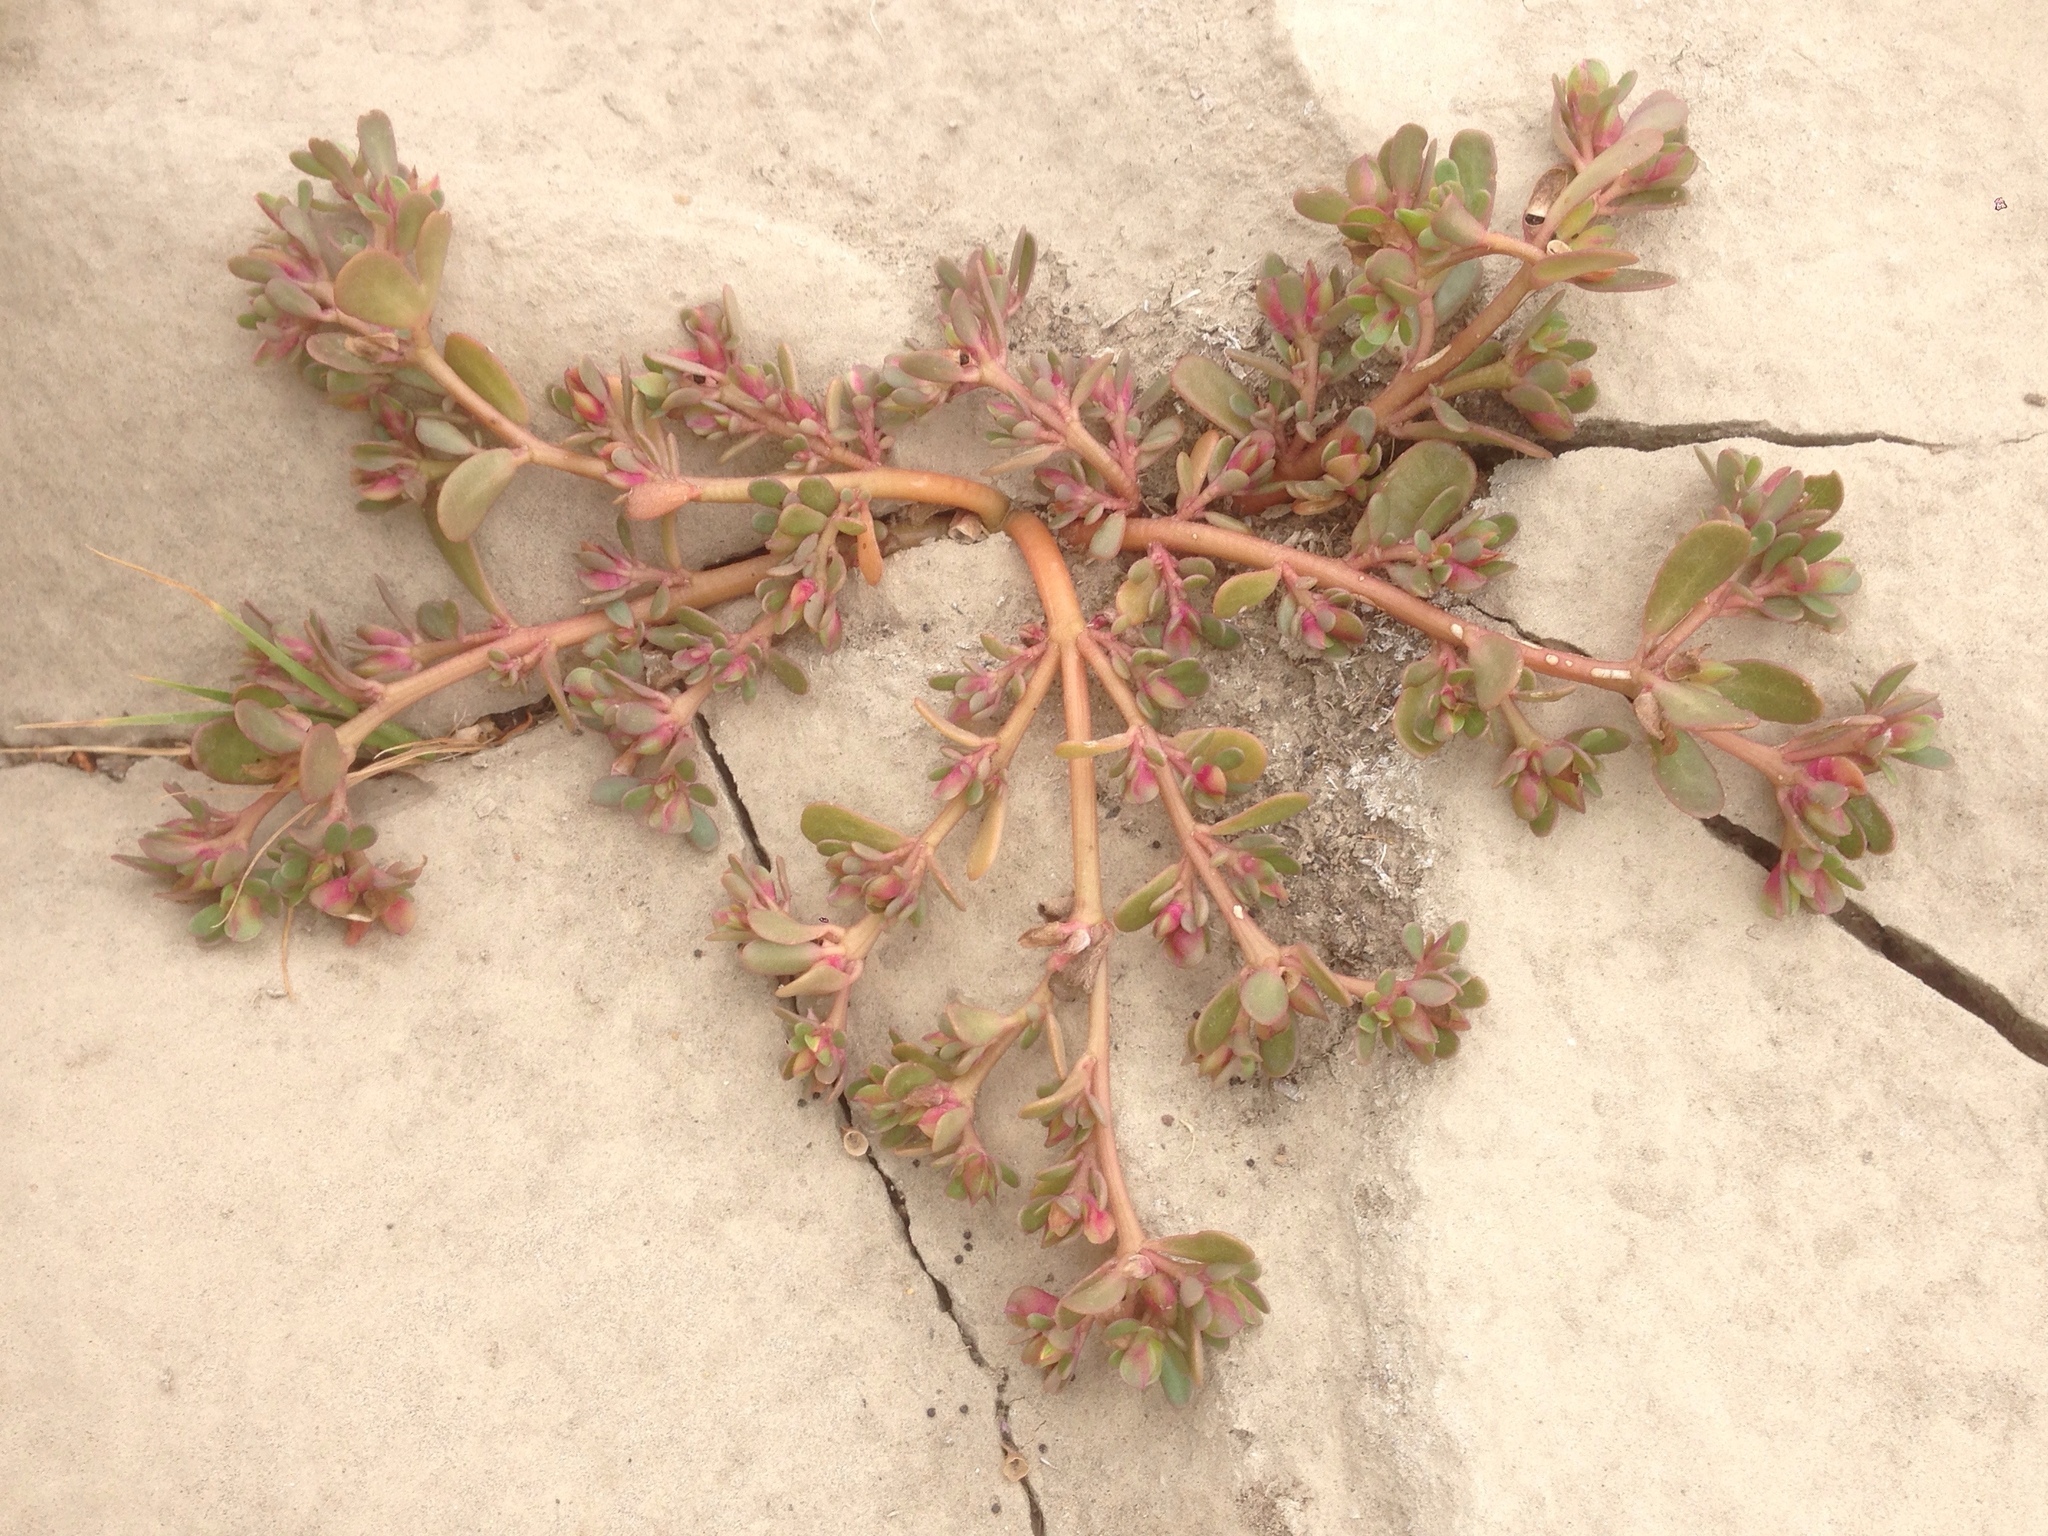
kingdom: Plantae
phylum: Tracheophyta
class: Magnoliopsida
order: Caryophyllales
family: Portulacaceae
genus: Portulaca
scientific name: Portulaca oleracea
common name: Common purslane
